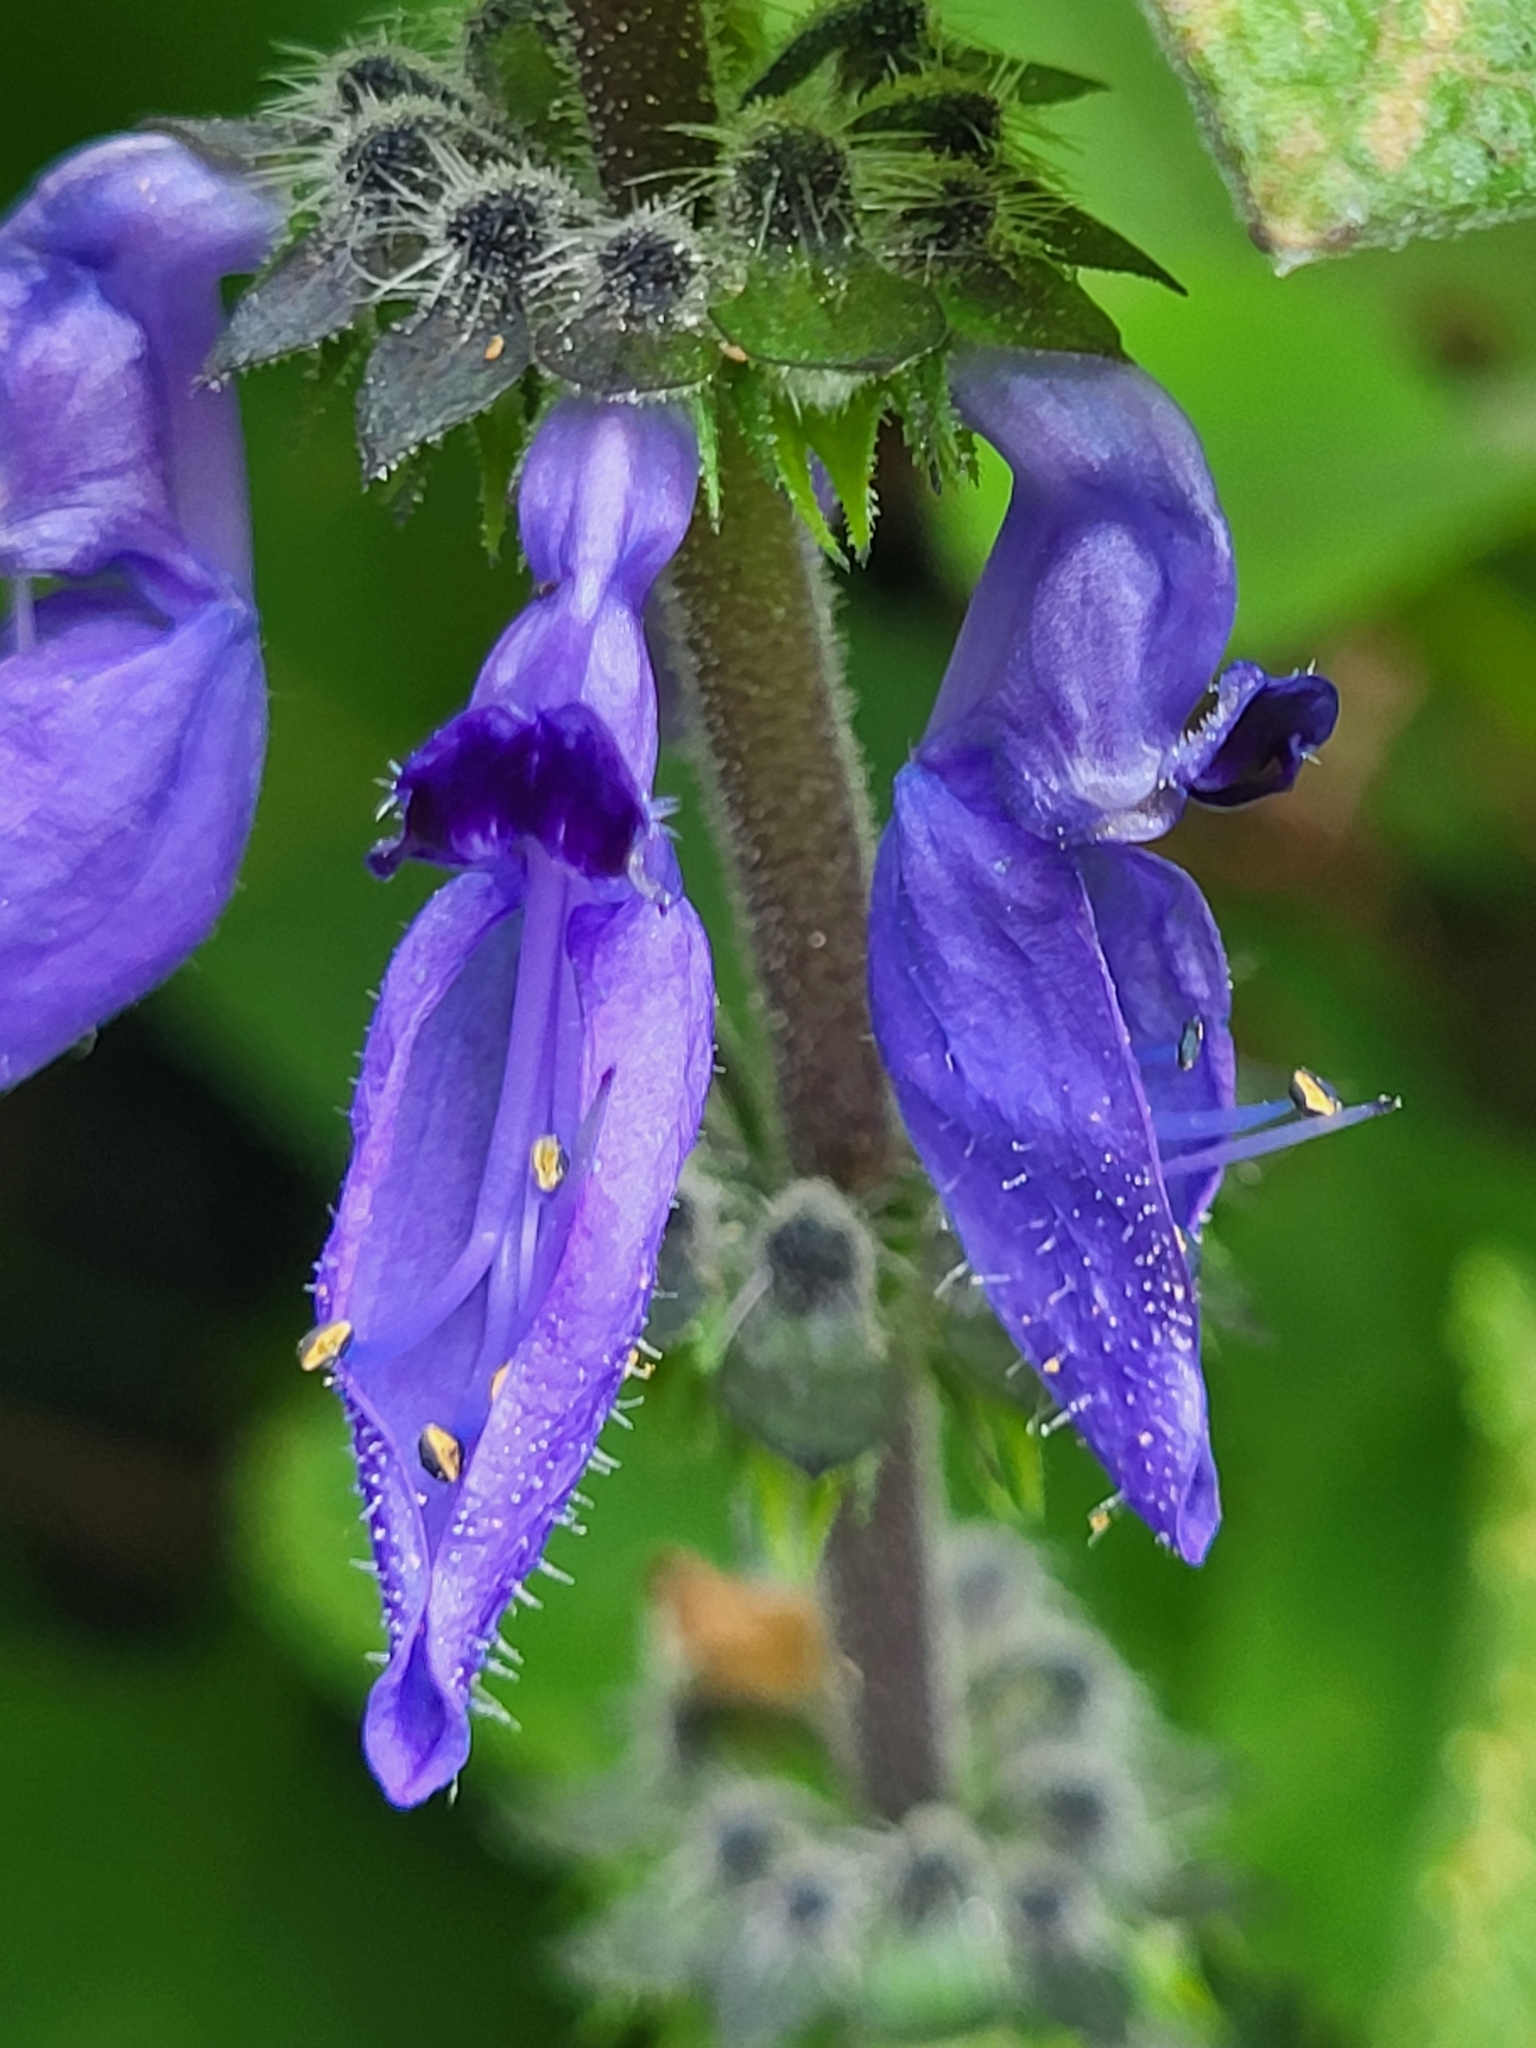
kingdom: Plantae
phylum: Tracheophyta
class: Magnoliopsida
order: Lamiales
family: Lamiaceae
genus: Coleus
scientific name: Coleus barbatus
